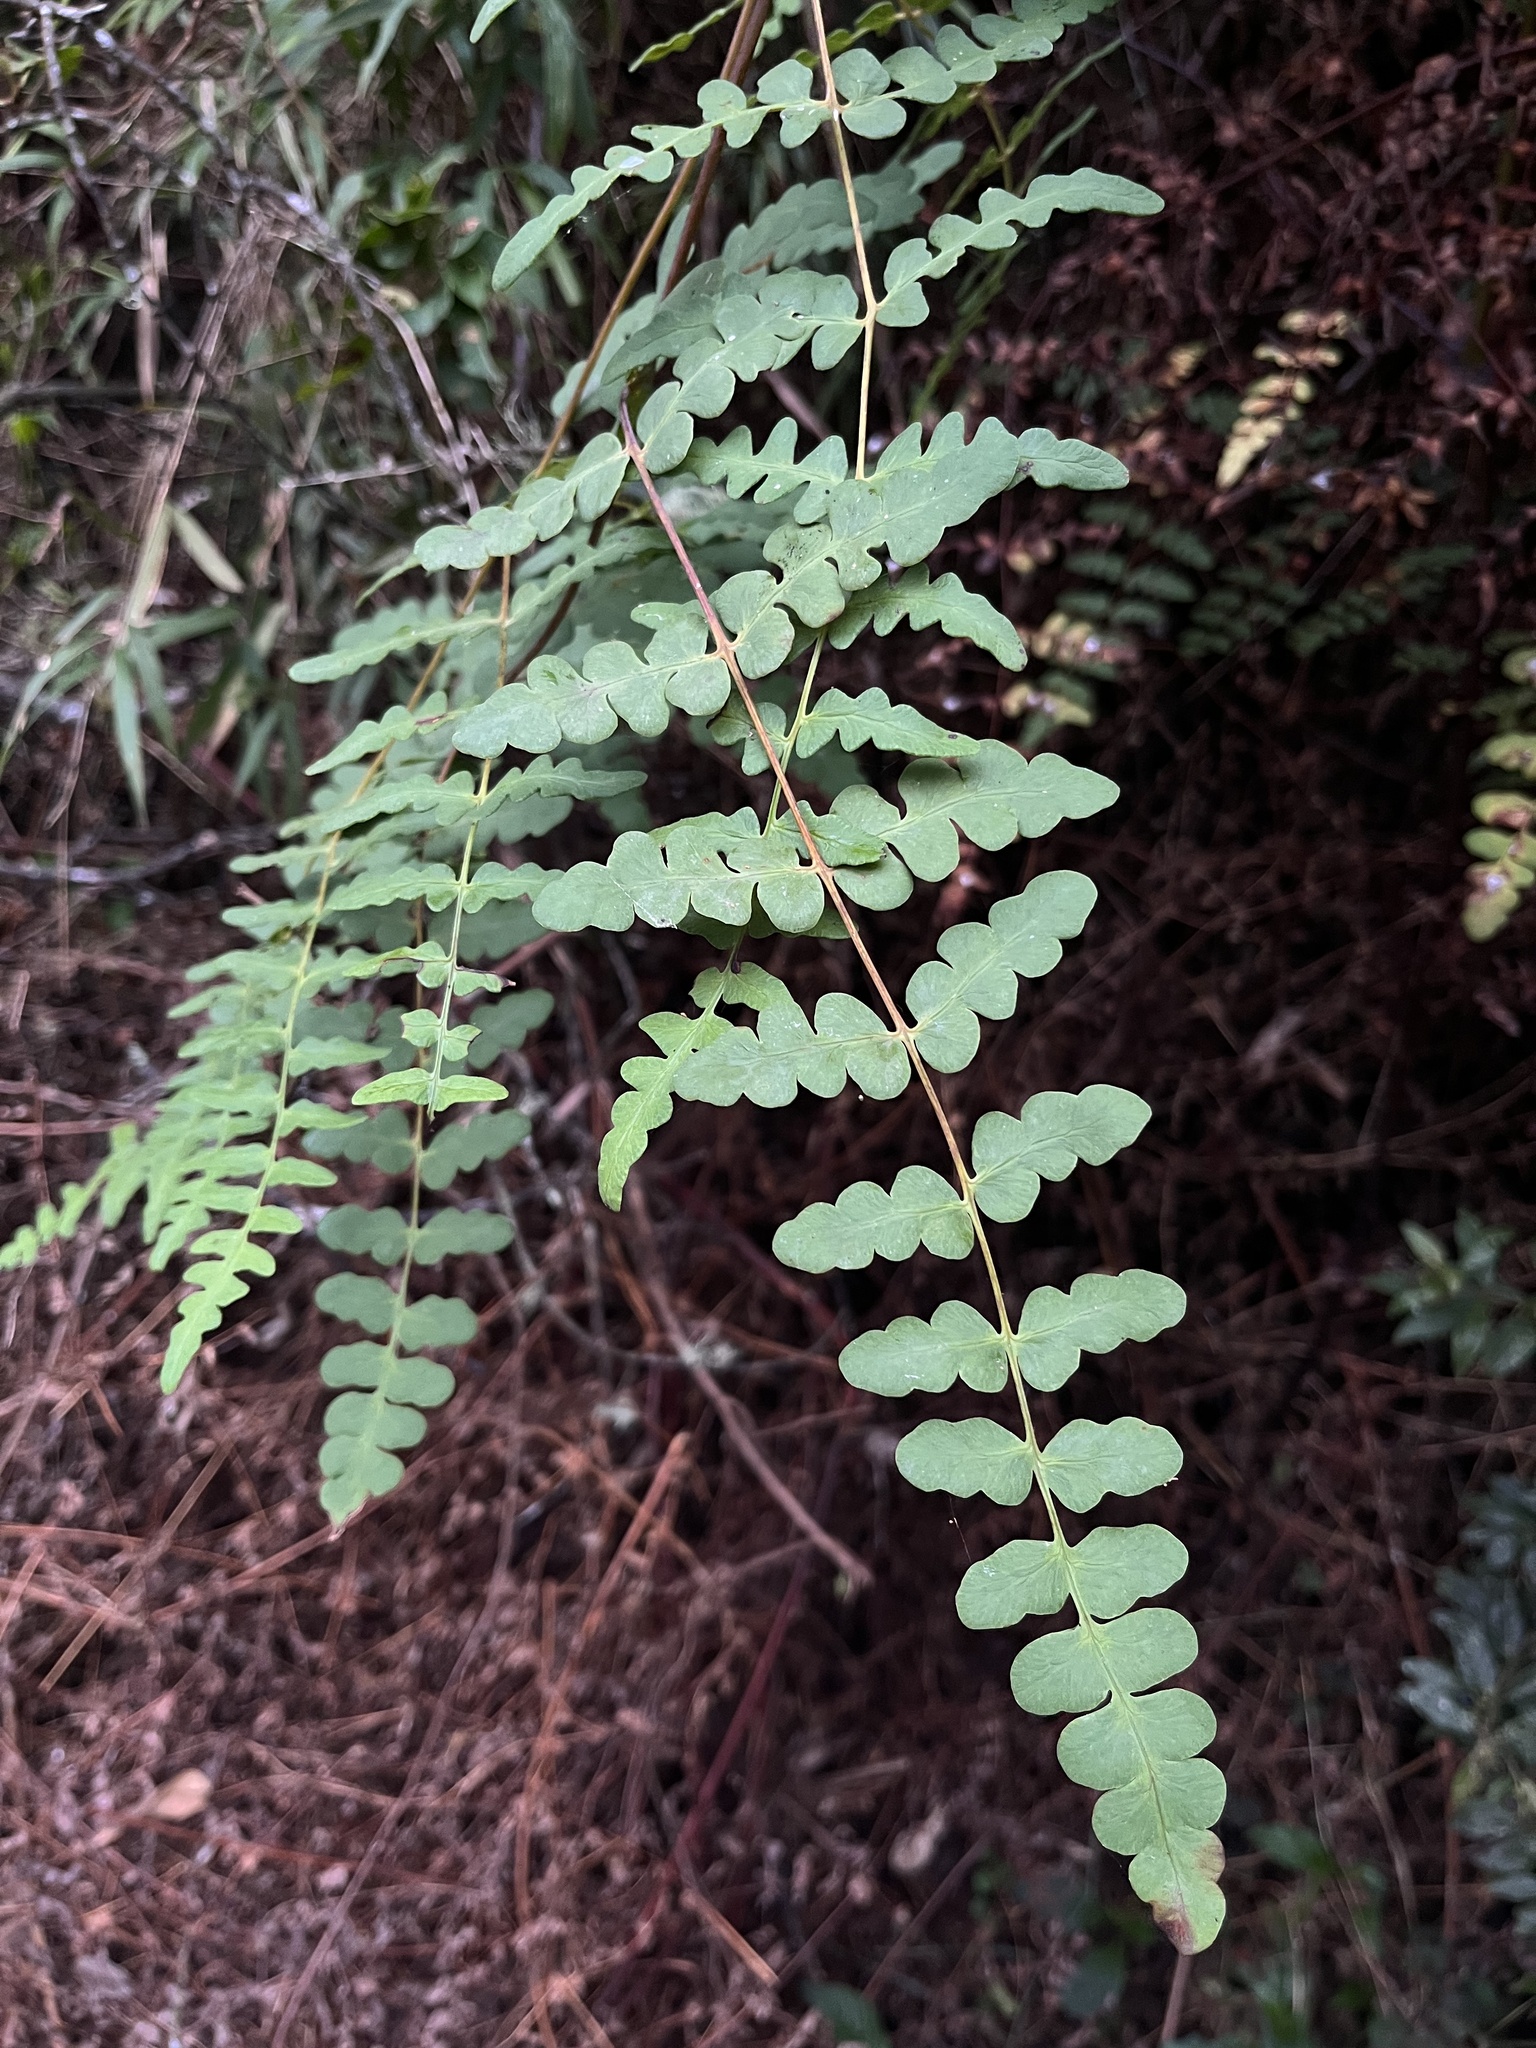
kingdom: Plantae
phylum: Tracheophyta
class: Polypodiopsida
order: Polypodiales
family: Dennstaedtiaceae
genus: Histiopteris
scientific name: Histiopteris incisa
